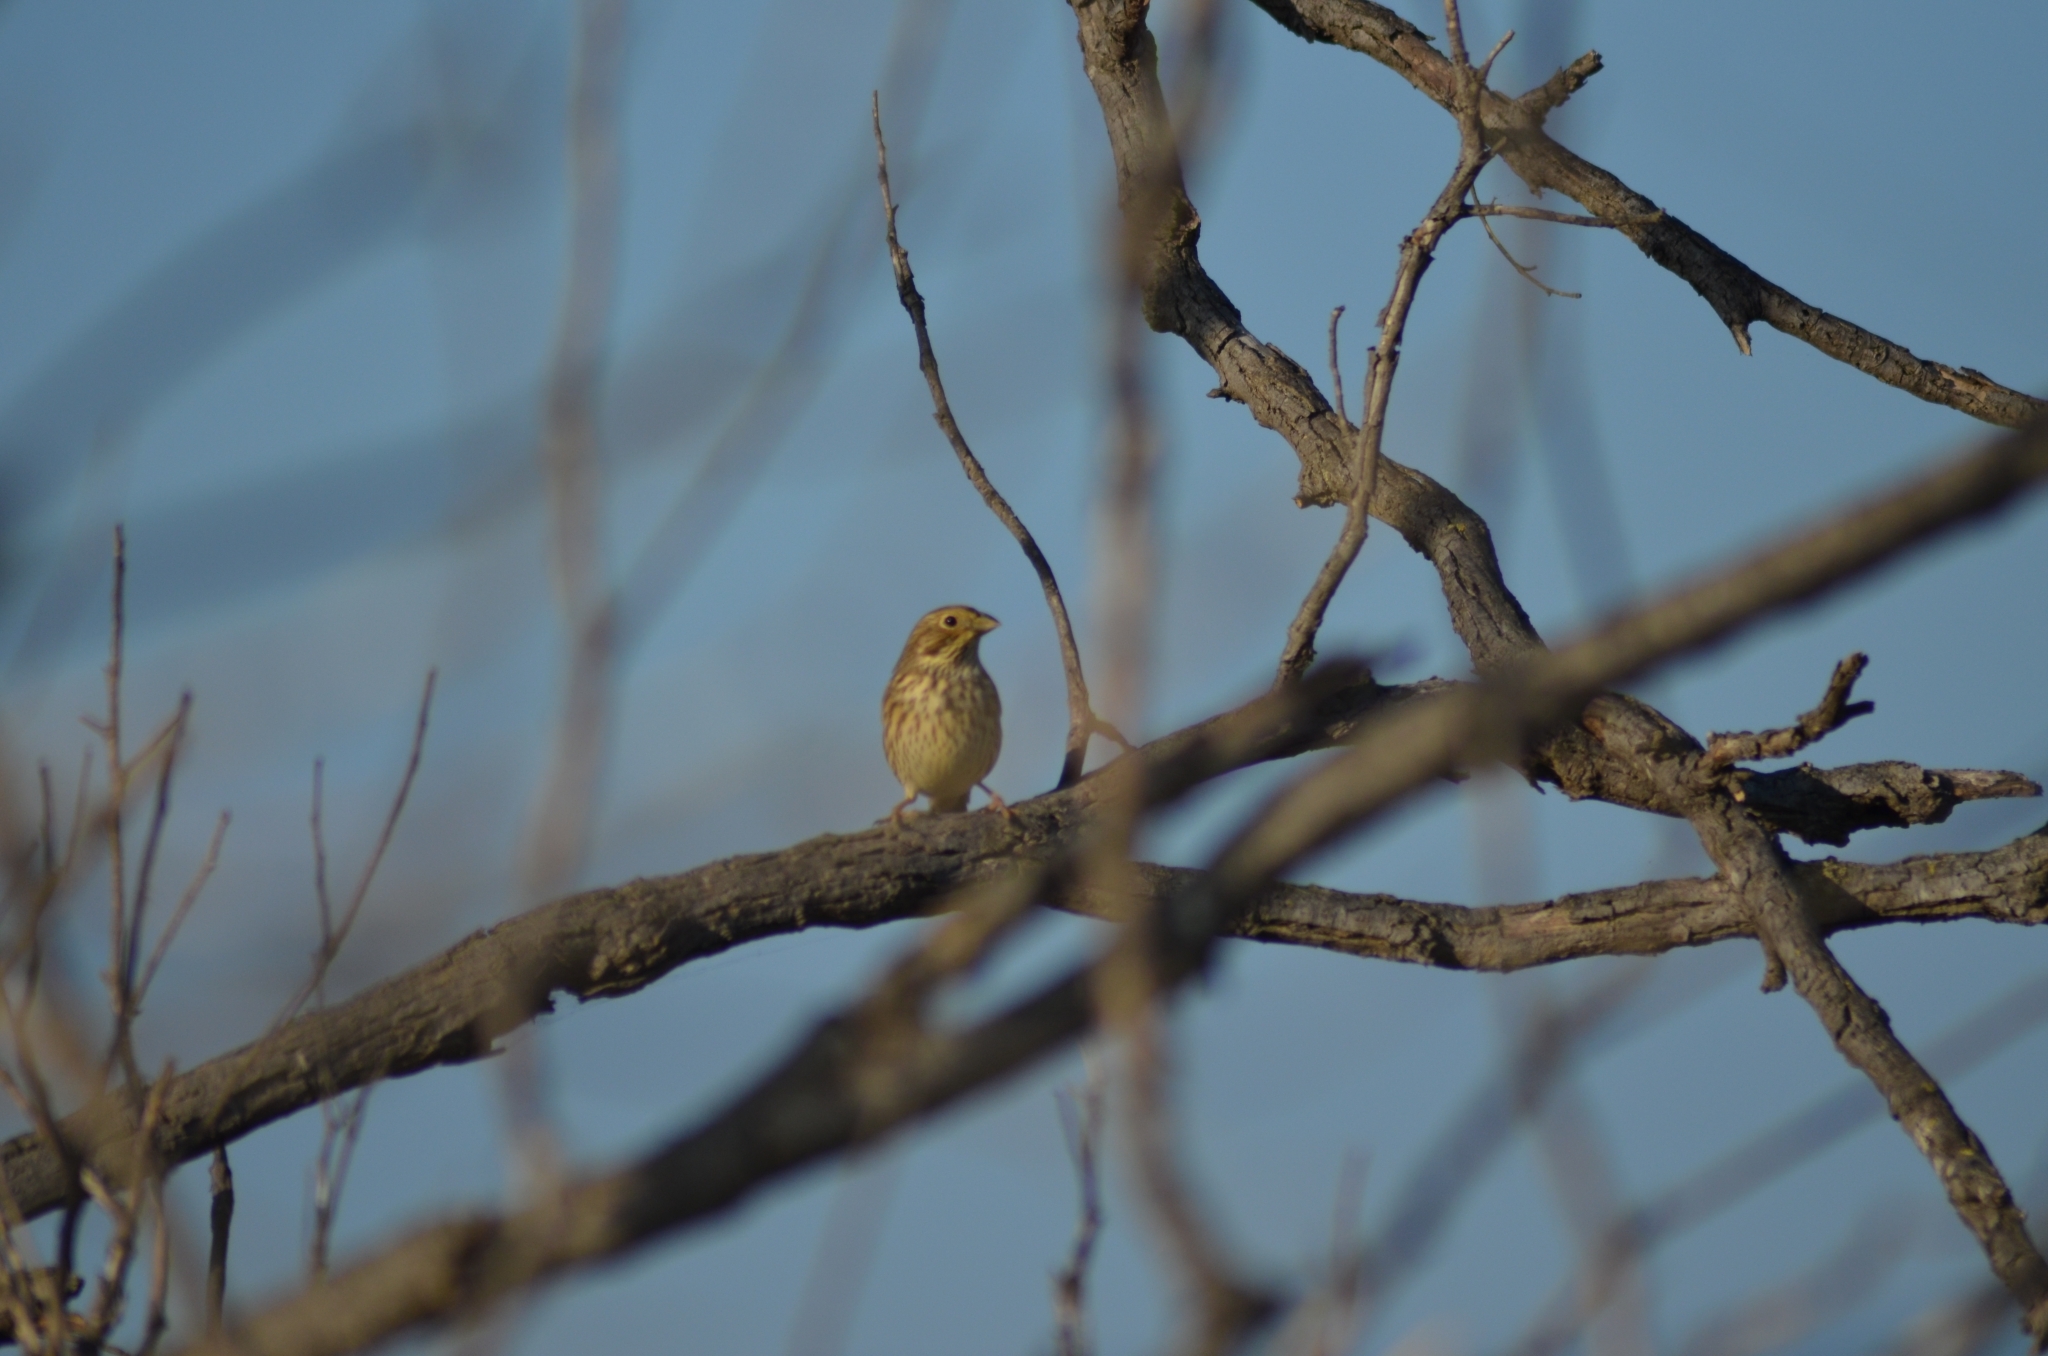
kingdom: Animalia
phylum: Chordata
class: Aves
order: Passeriformes
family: Emberizidae
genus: Emberiza
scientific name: Emberiza calandra
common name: Corn bunting
